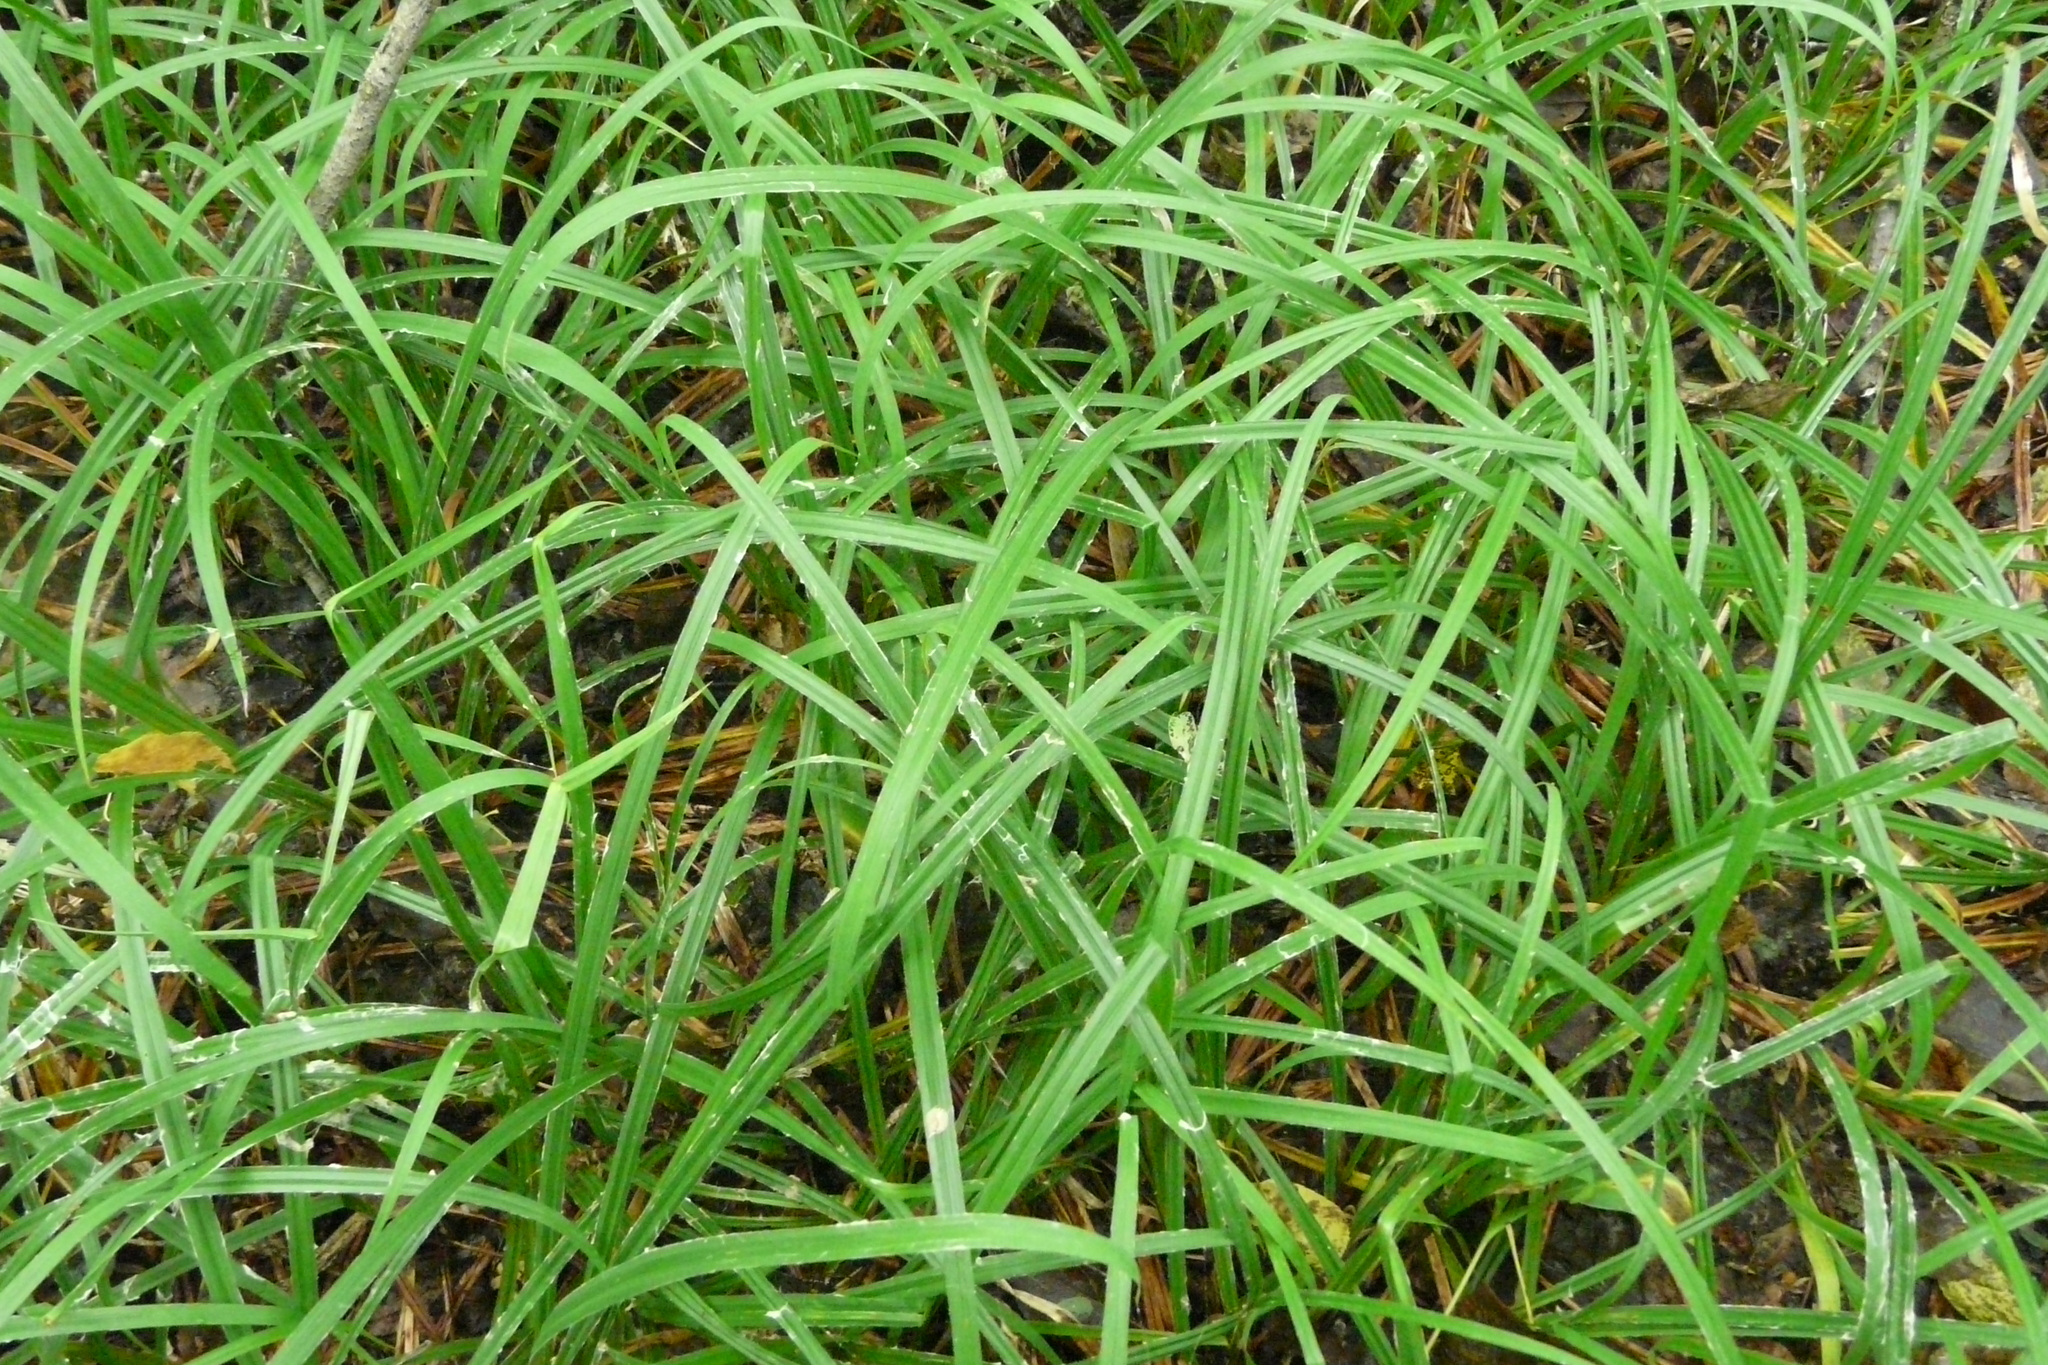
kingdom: Plantae
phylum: Tracheophyta
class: Liliopsida
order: Poales
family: Cyperaceae
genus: Carex
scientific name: Carex pilosa
